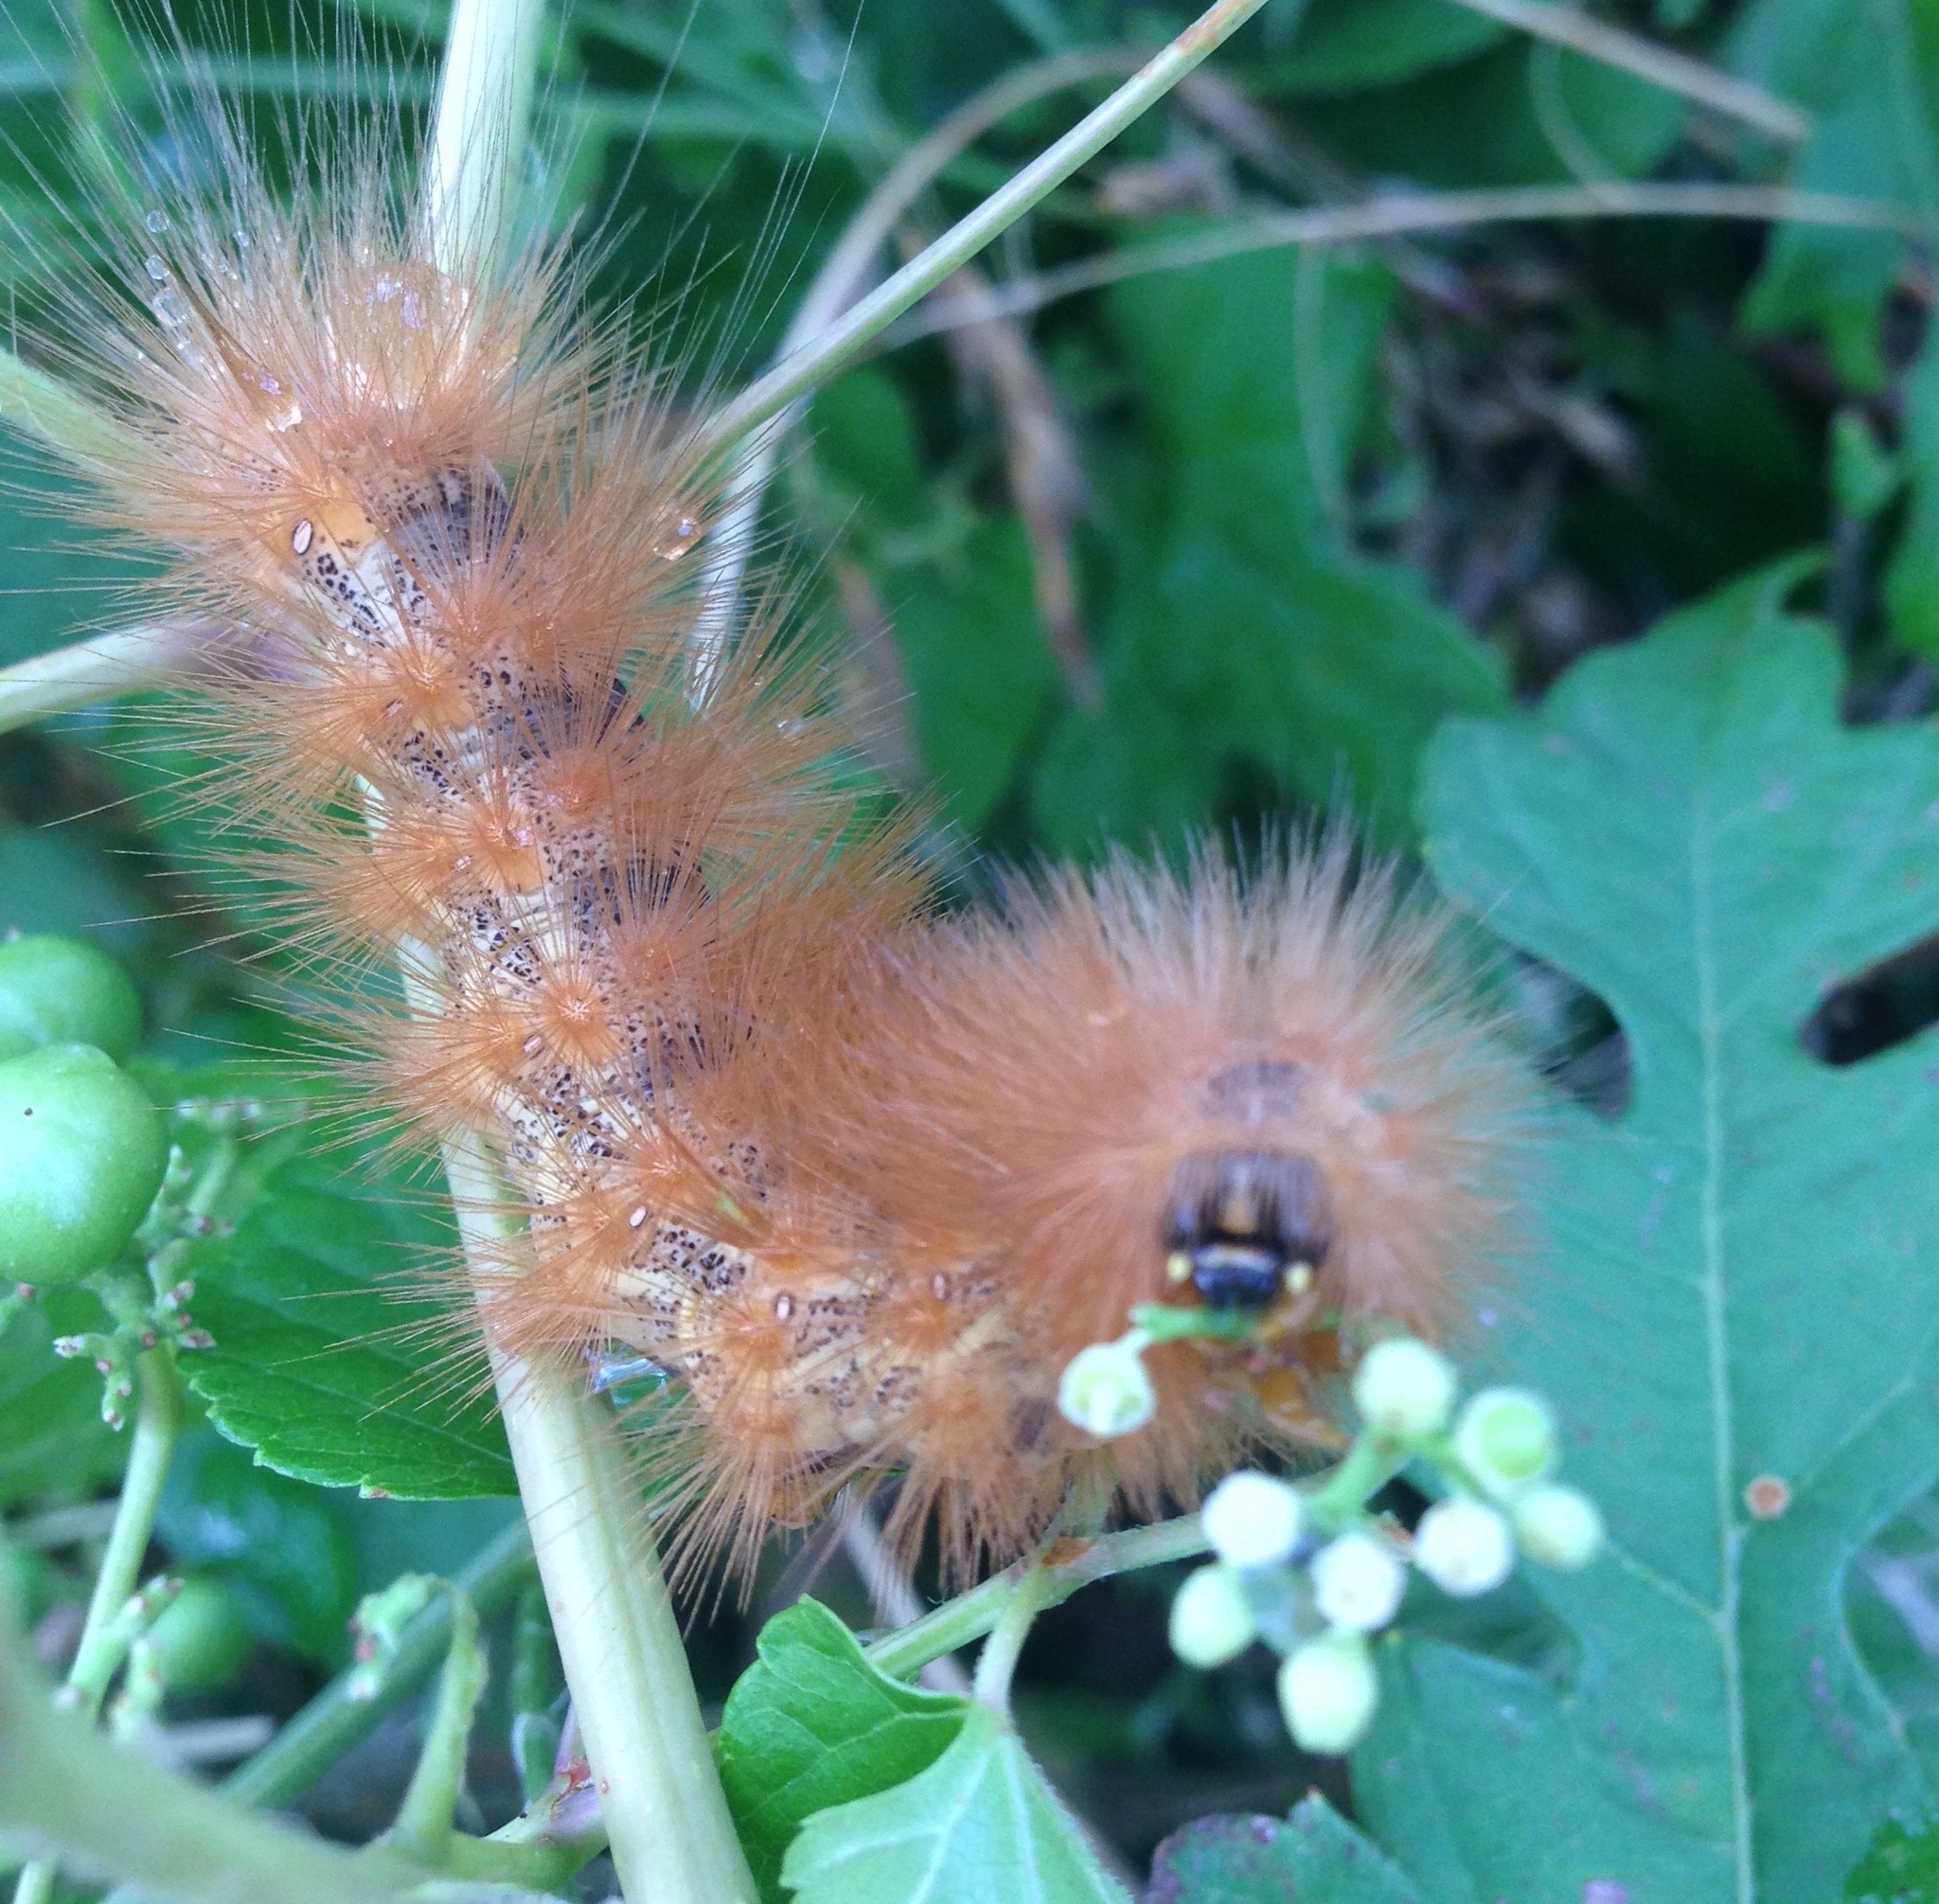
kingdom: Animalia
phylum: Arthropoda
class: Insecta
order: Lepidoptera
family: Erebidae
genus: Estigmene
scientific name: Estigmene acrea
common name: Salt marsh moth
